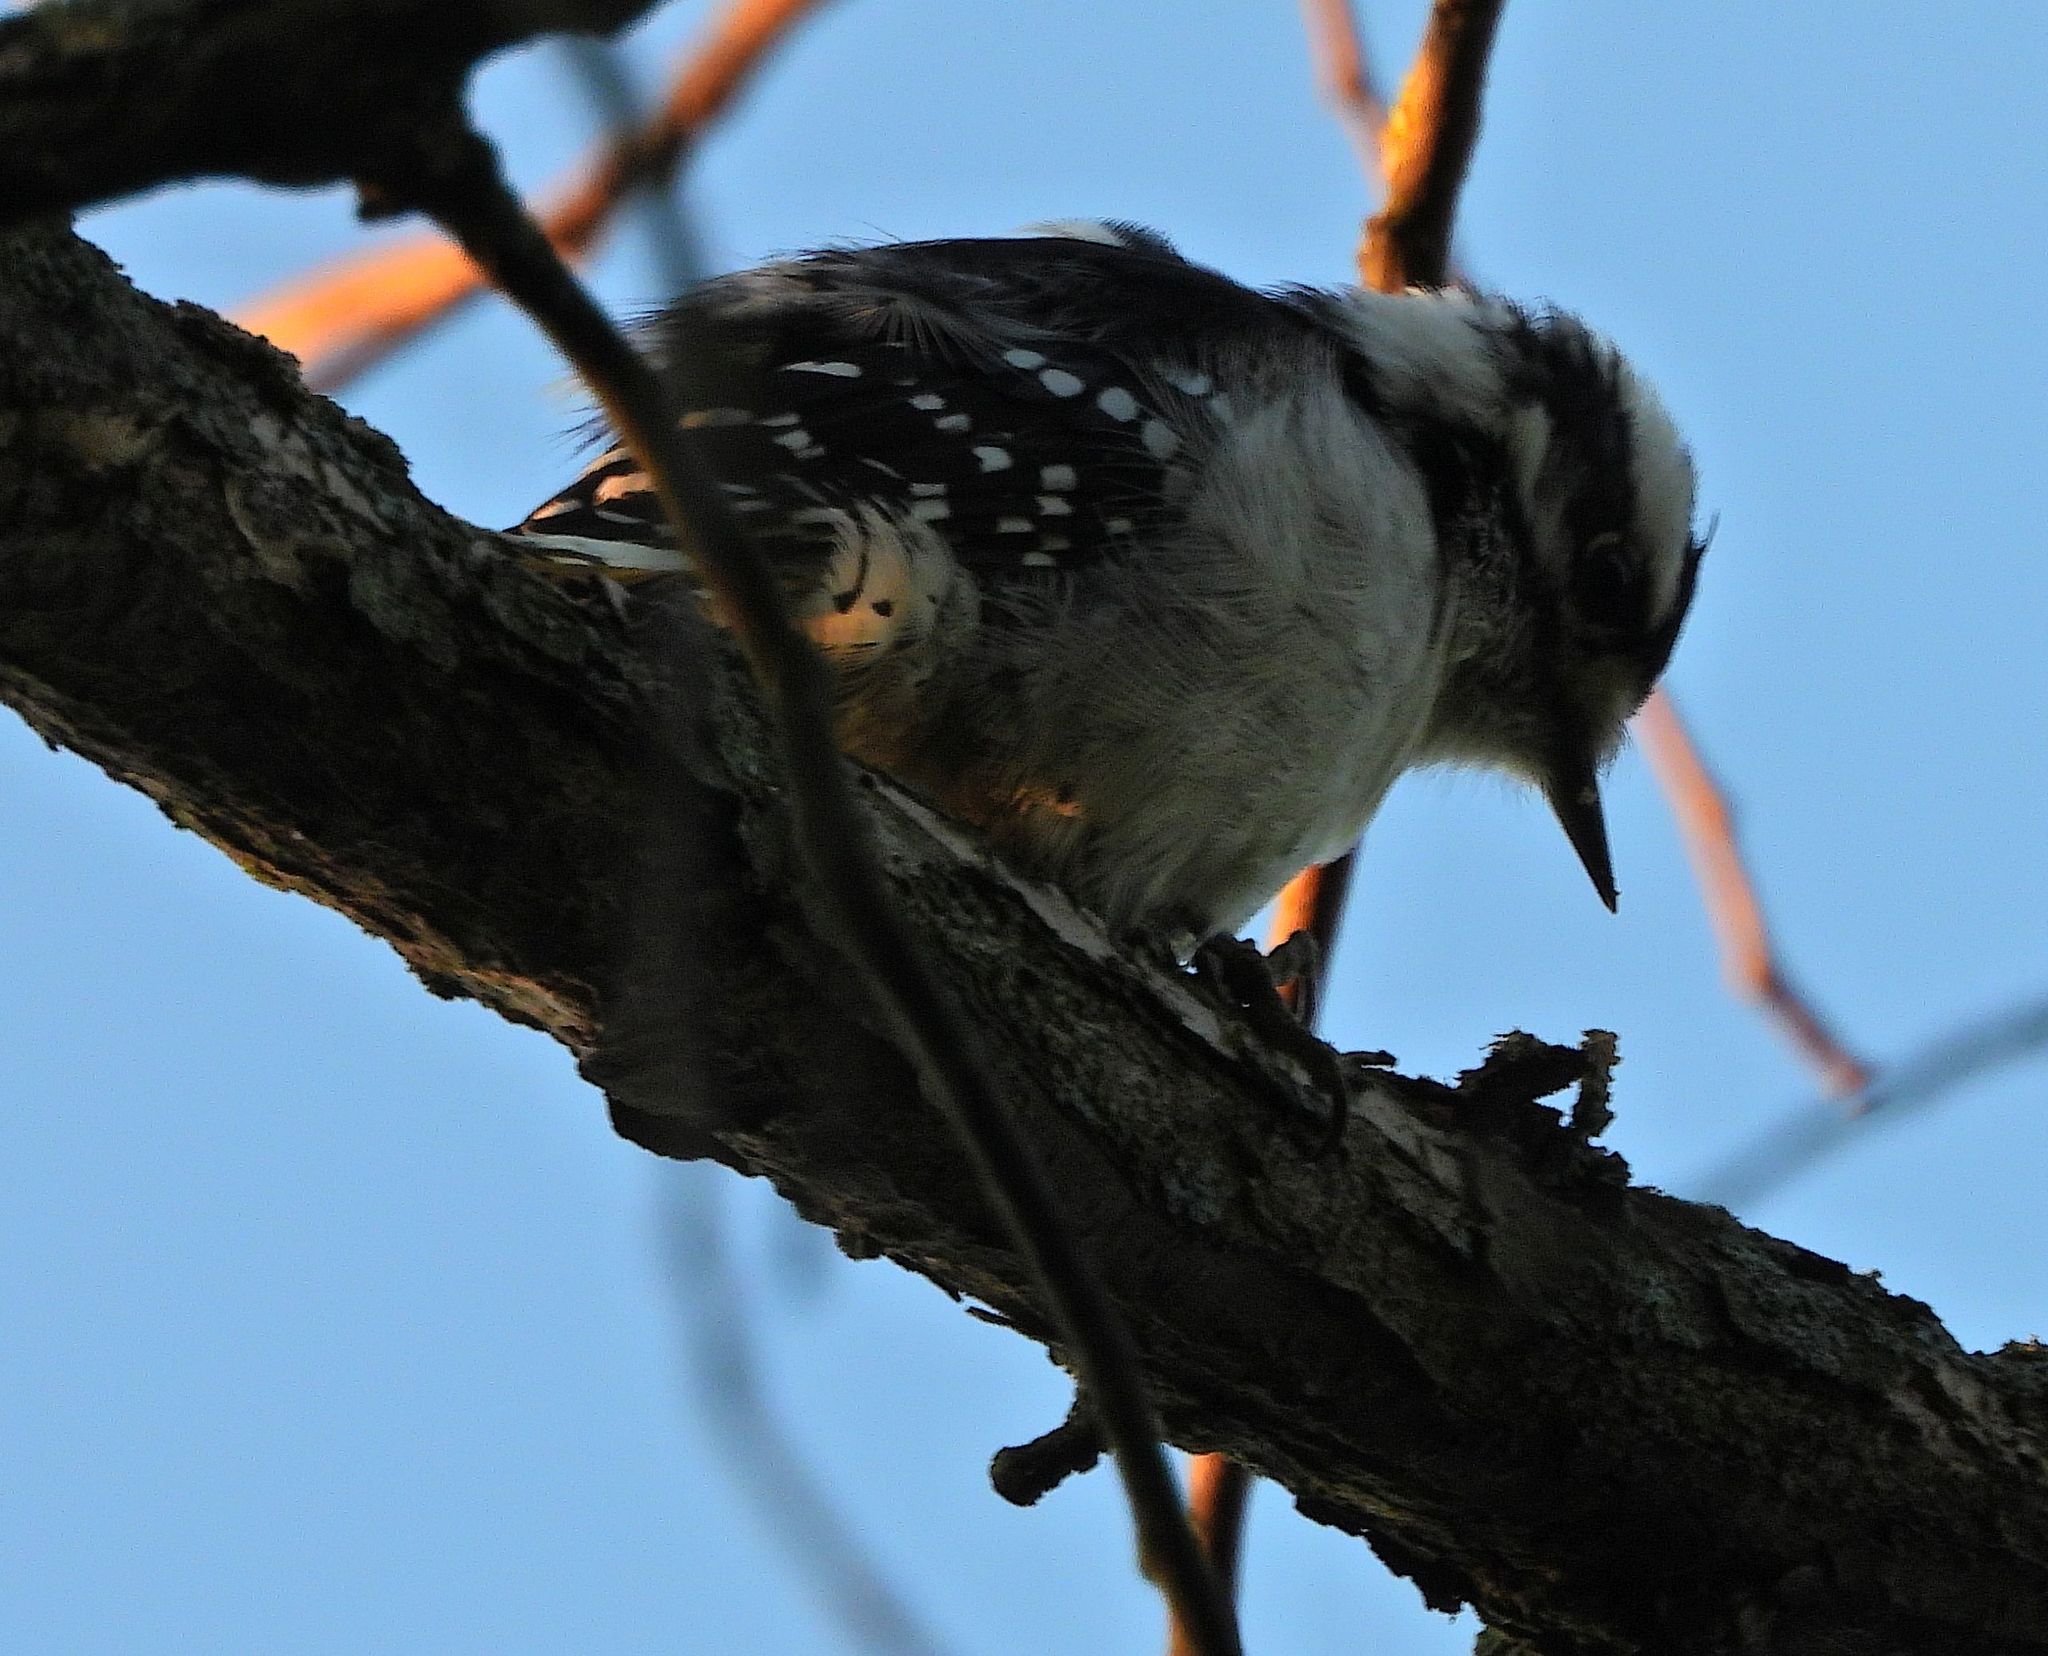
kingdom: Animalia
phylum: Chordata
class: Aves
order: Piciformes
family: Picidae
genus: Dryobates
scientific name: Dryobates pubescens
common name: Downy woodpecker
